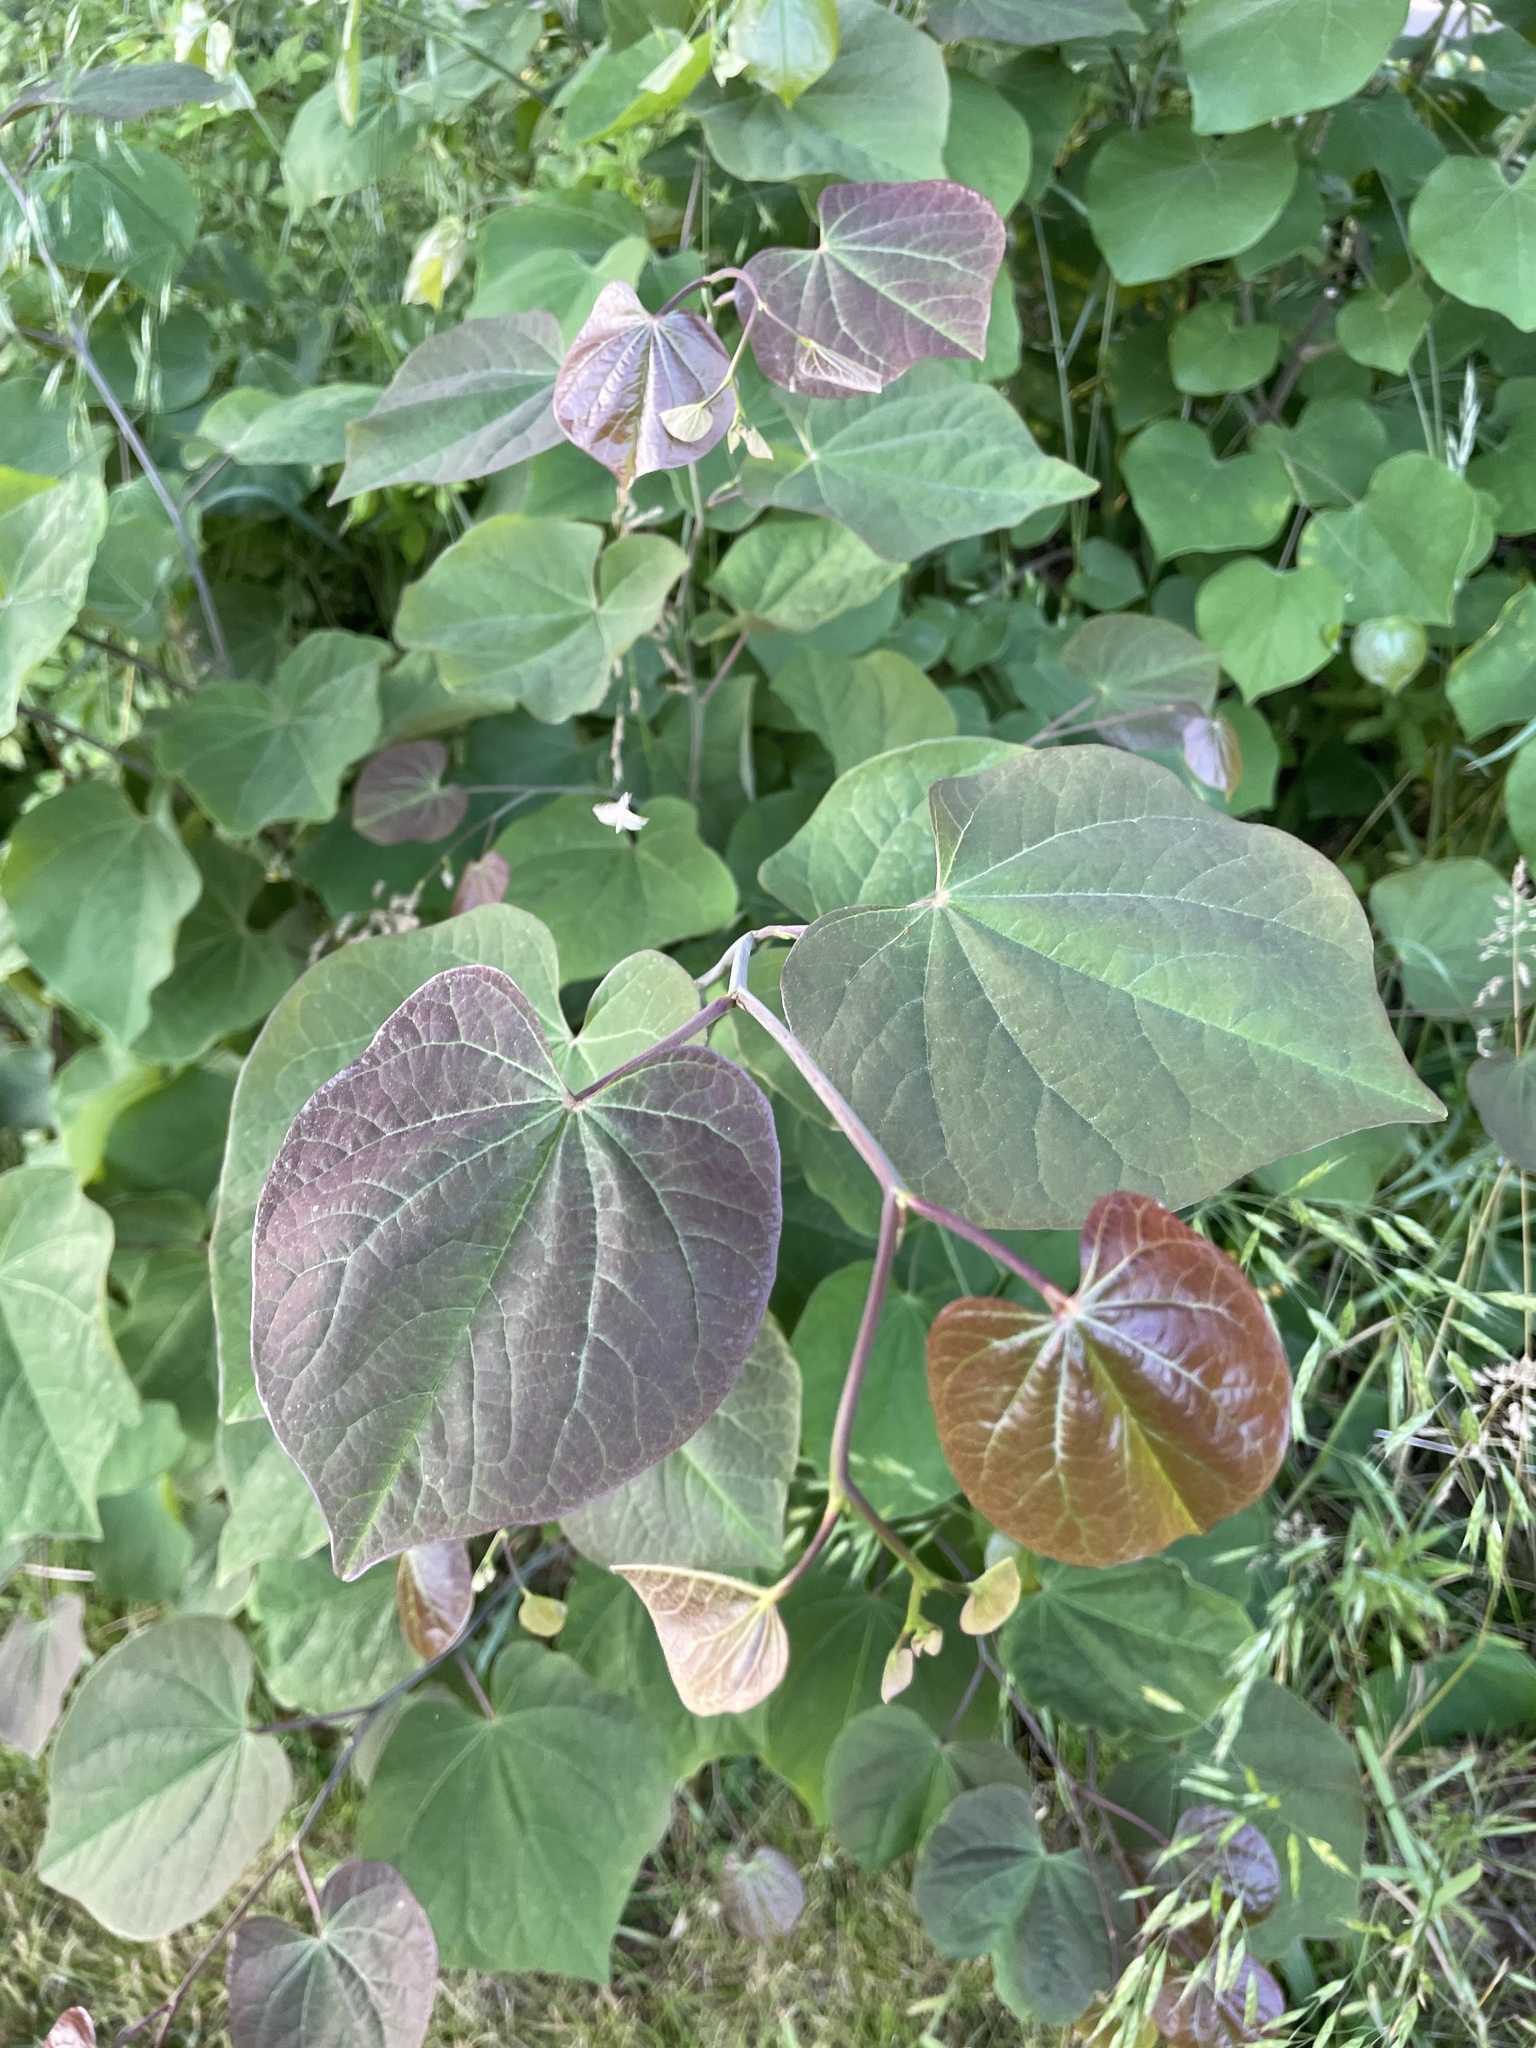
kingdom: Plantae
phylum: Tracheophyta
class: Magnoliopsida
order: Fabales
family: Fabaceae
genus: Cercis
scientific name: Cercis canadensis
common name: Eastern redbud
